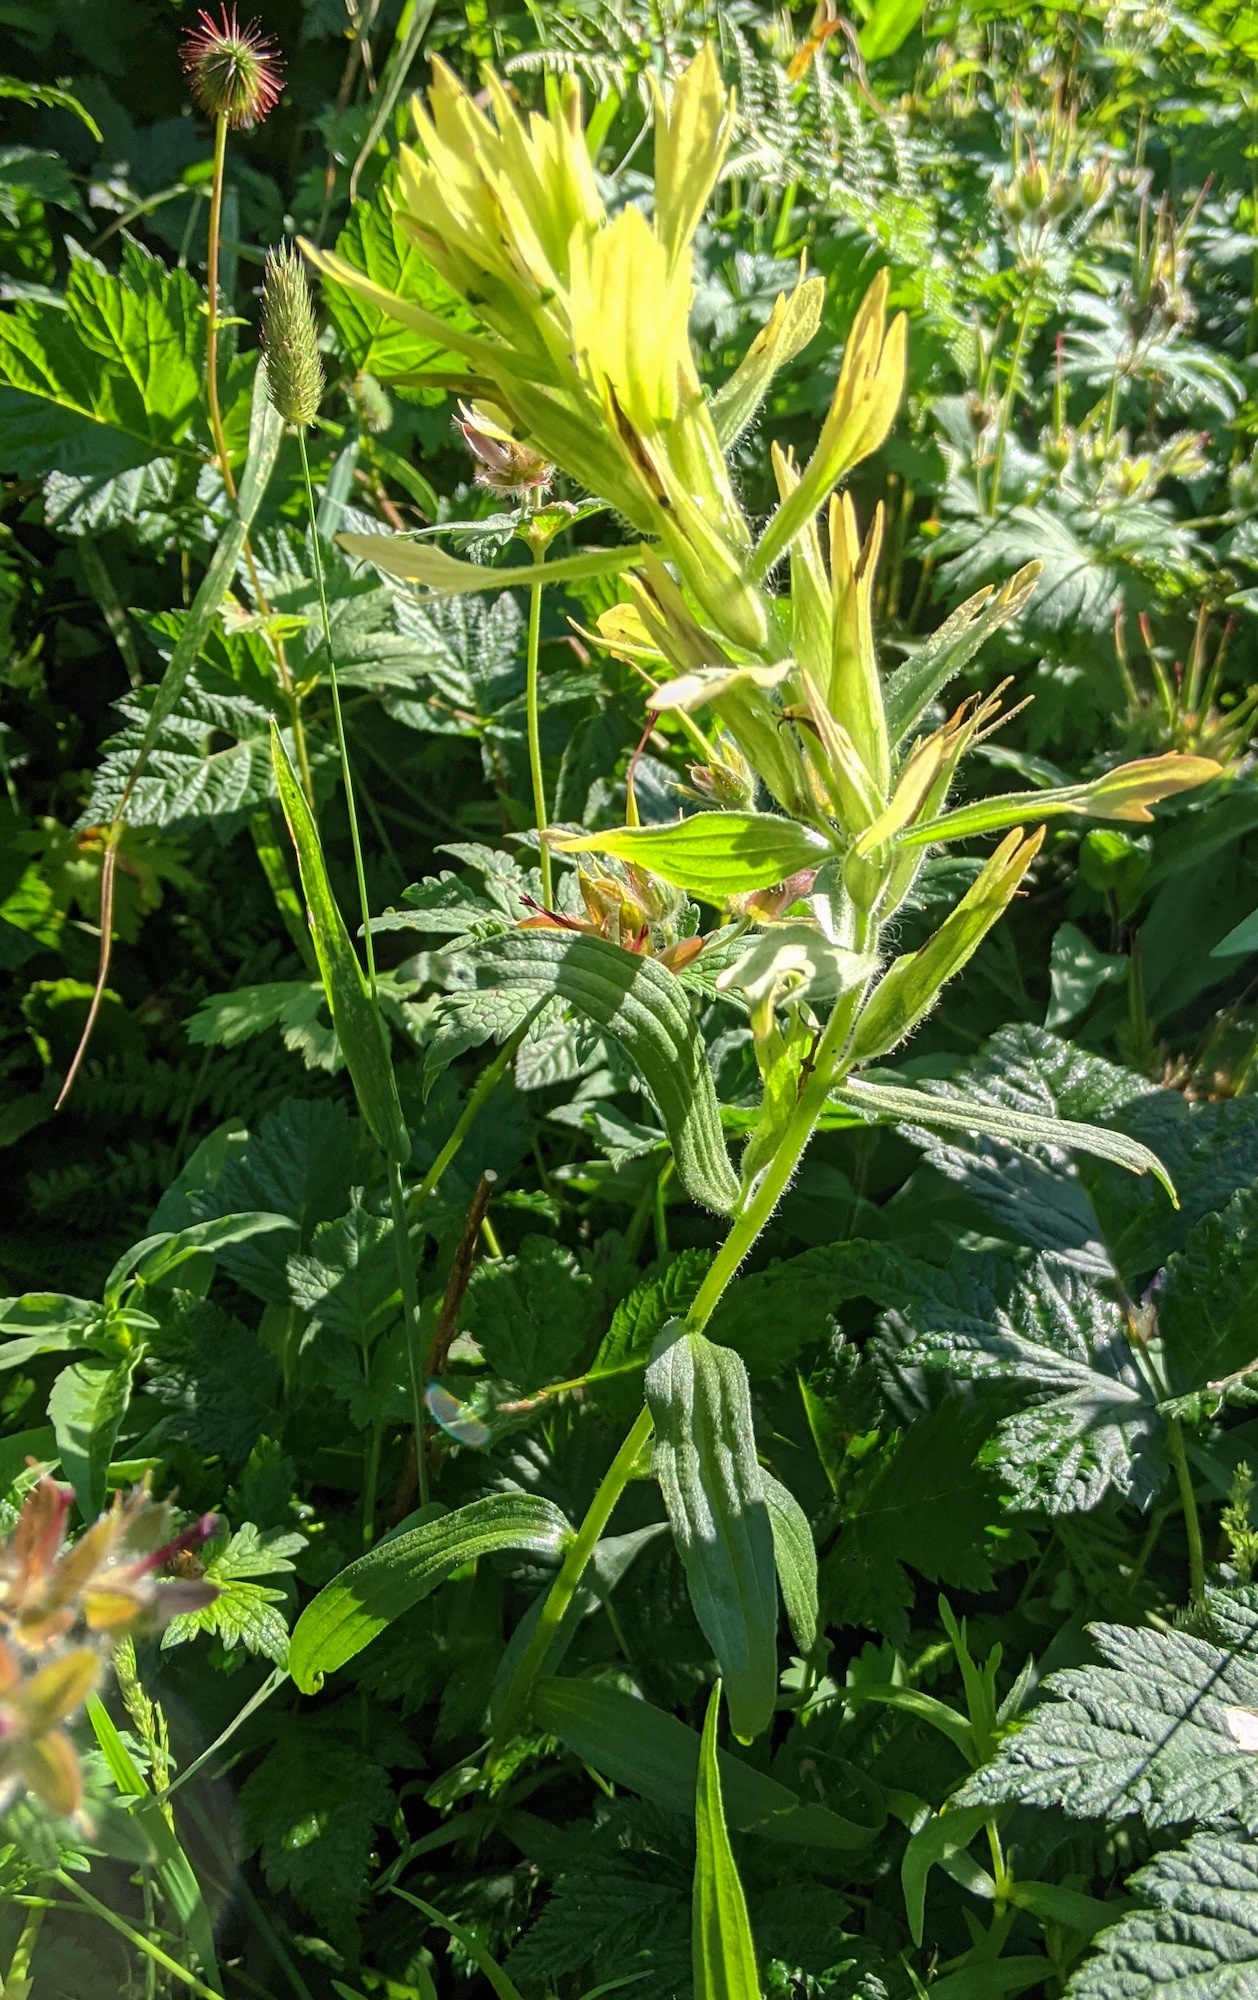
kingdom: Plantae
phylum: Tracheophyta
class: Magnoliopsida
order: Lamiales
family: Orobanchaceae
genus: Castilleja
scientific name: Castilleja unalaschcensis
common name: Unalaska paintbrush
